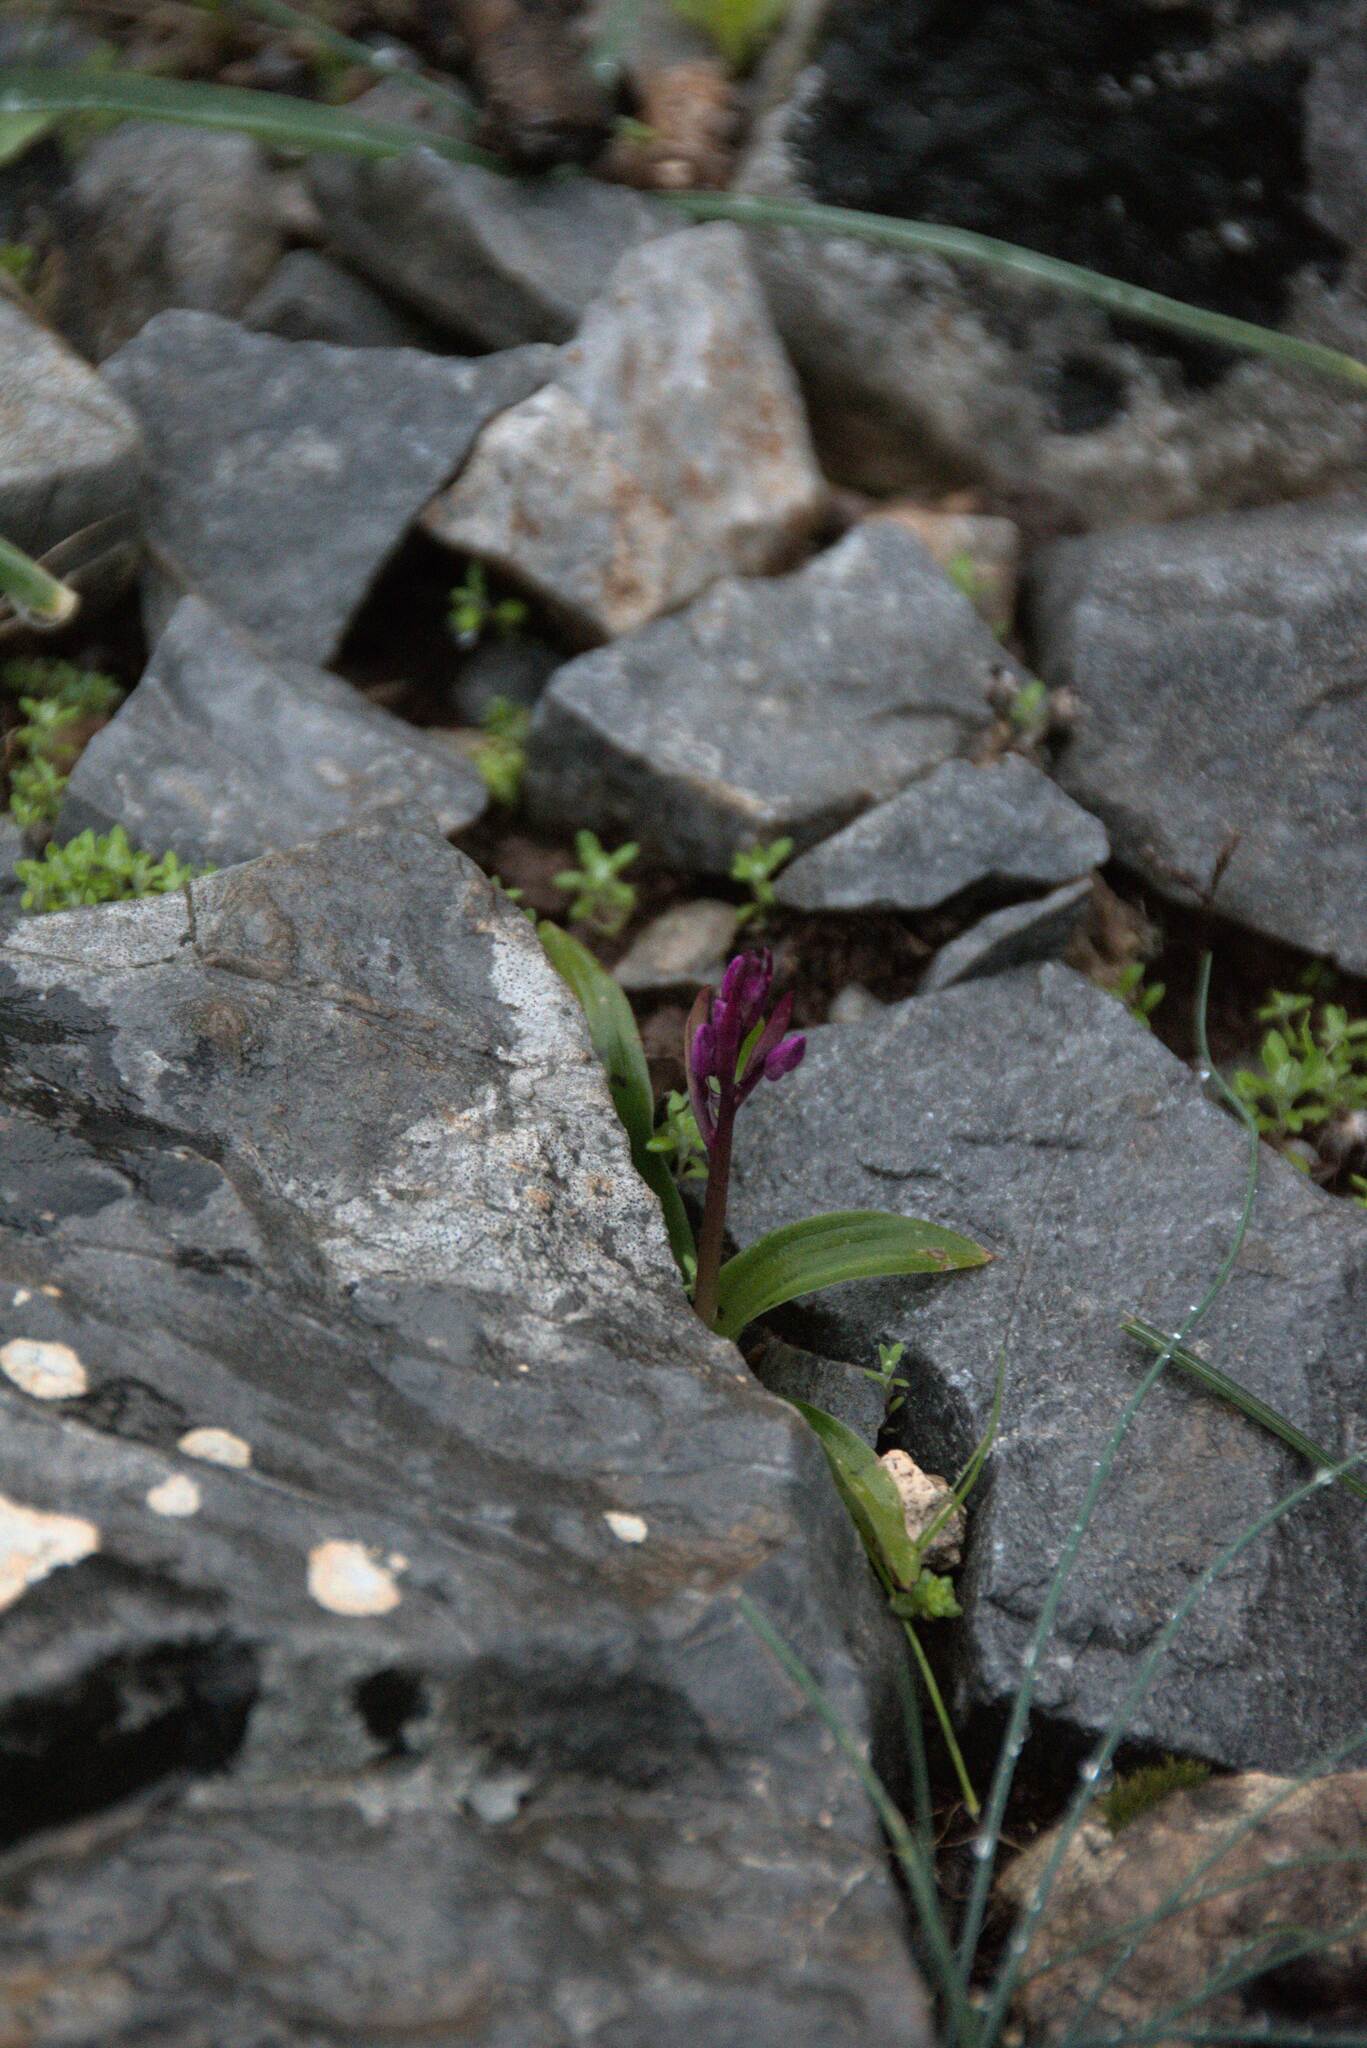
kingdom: Plantae
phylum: Tracheophyta
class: Liliopsida
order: Asparagales
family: Orchidaceae
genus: Orchis
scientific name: Orchis quadripunctata
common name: Four-spotted orchid
